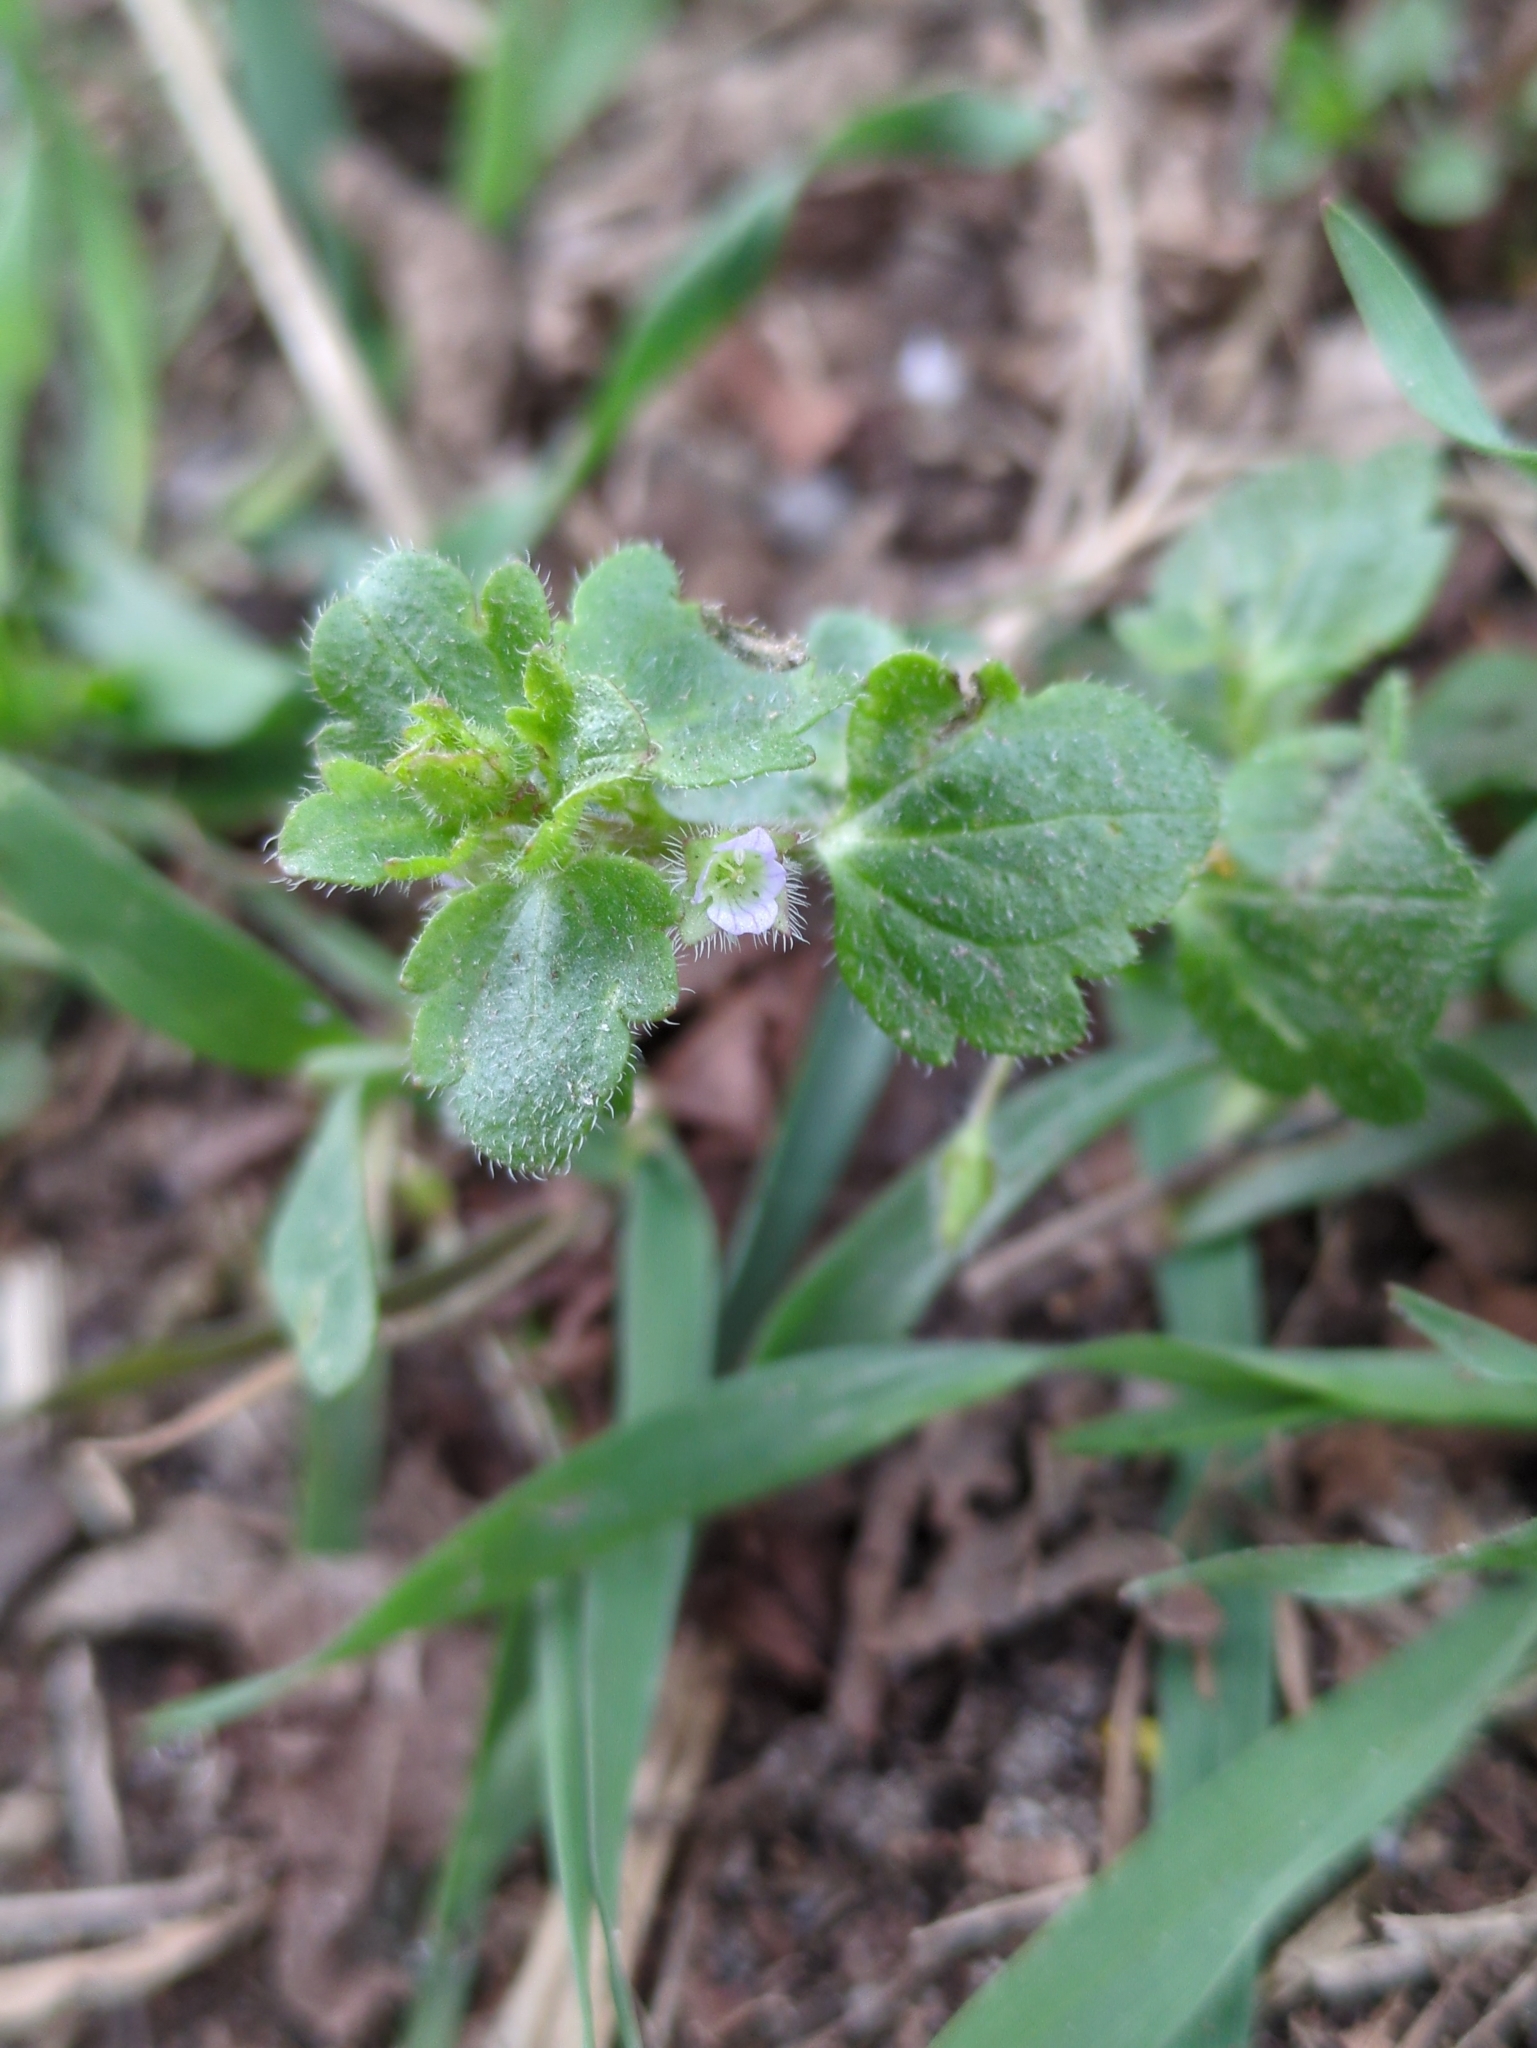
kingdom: Plantae
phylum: Tracheophyta
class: Magnoliopsida
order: Lamiales
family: Plantaginaceae
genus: Veronica
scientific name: Veronica sublobata
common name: False ivy-leaved speedwell
